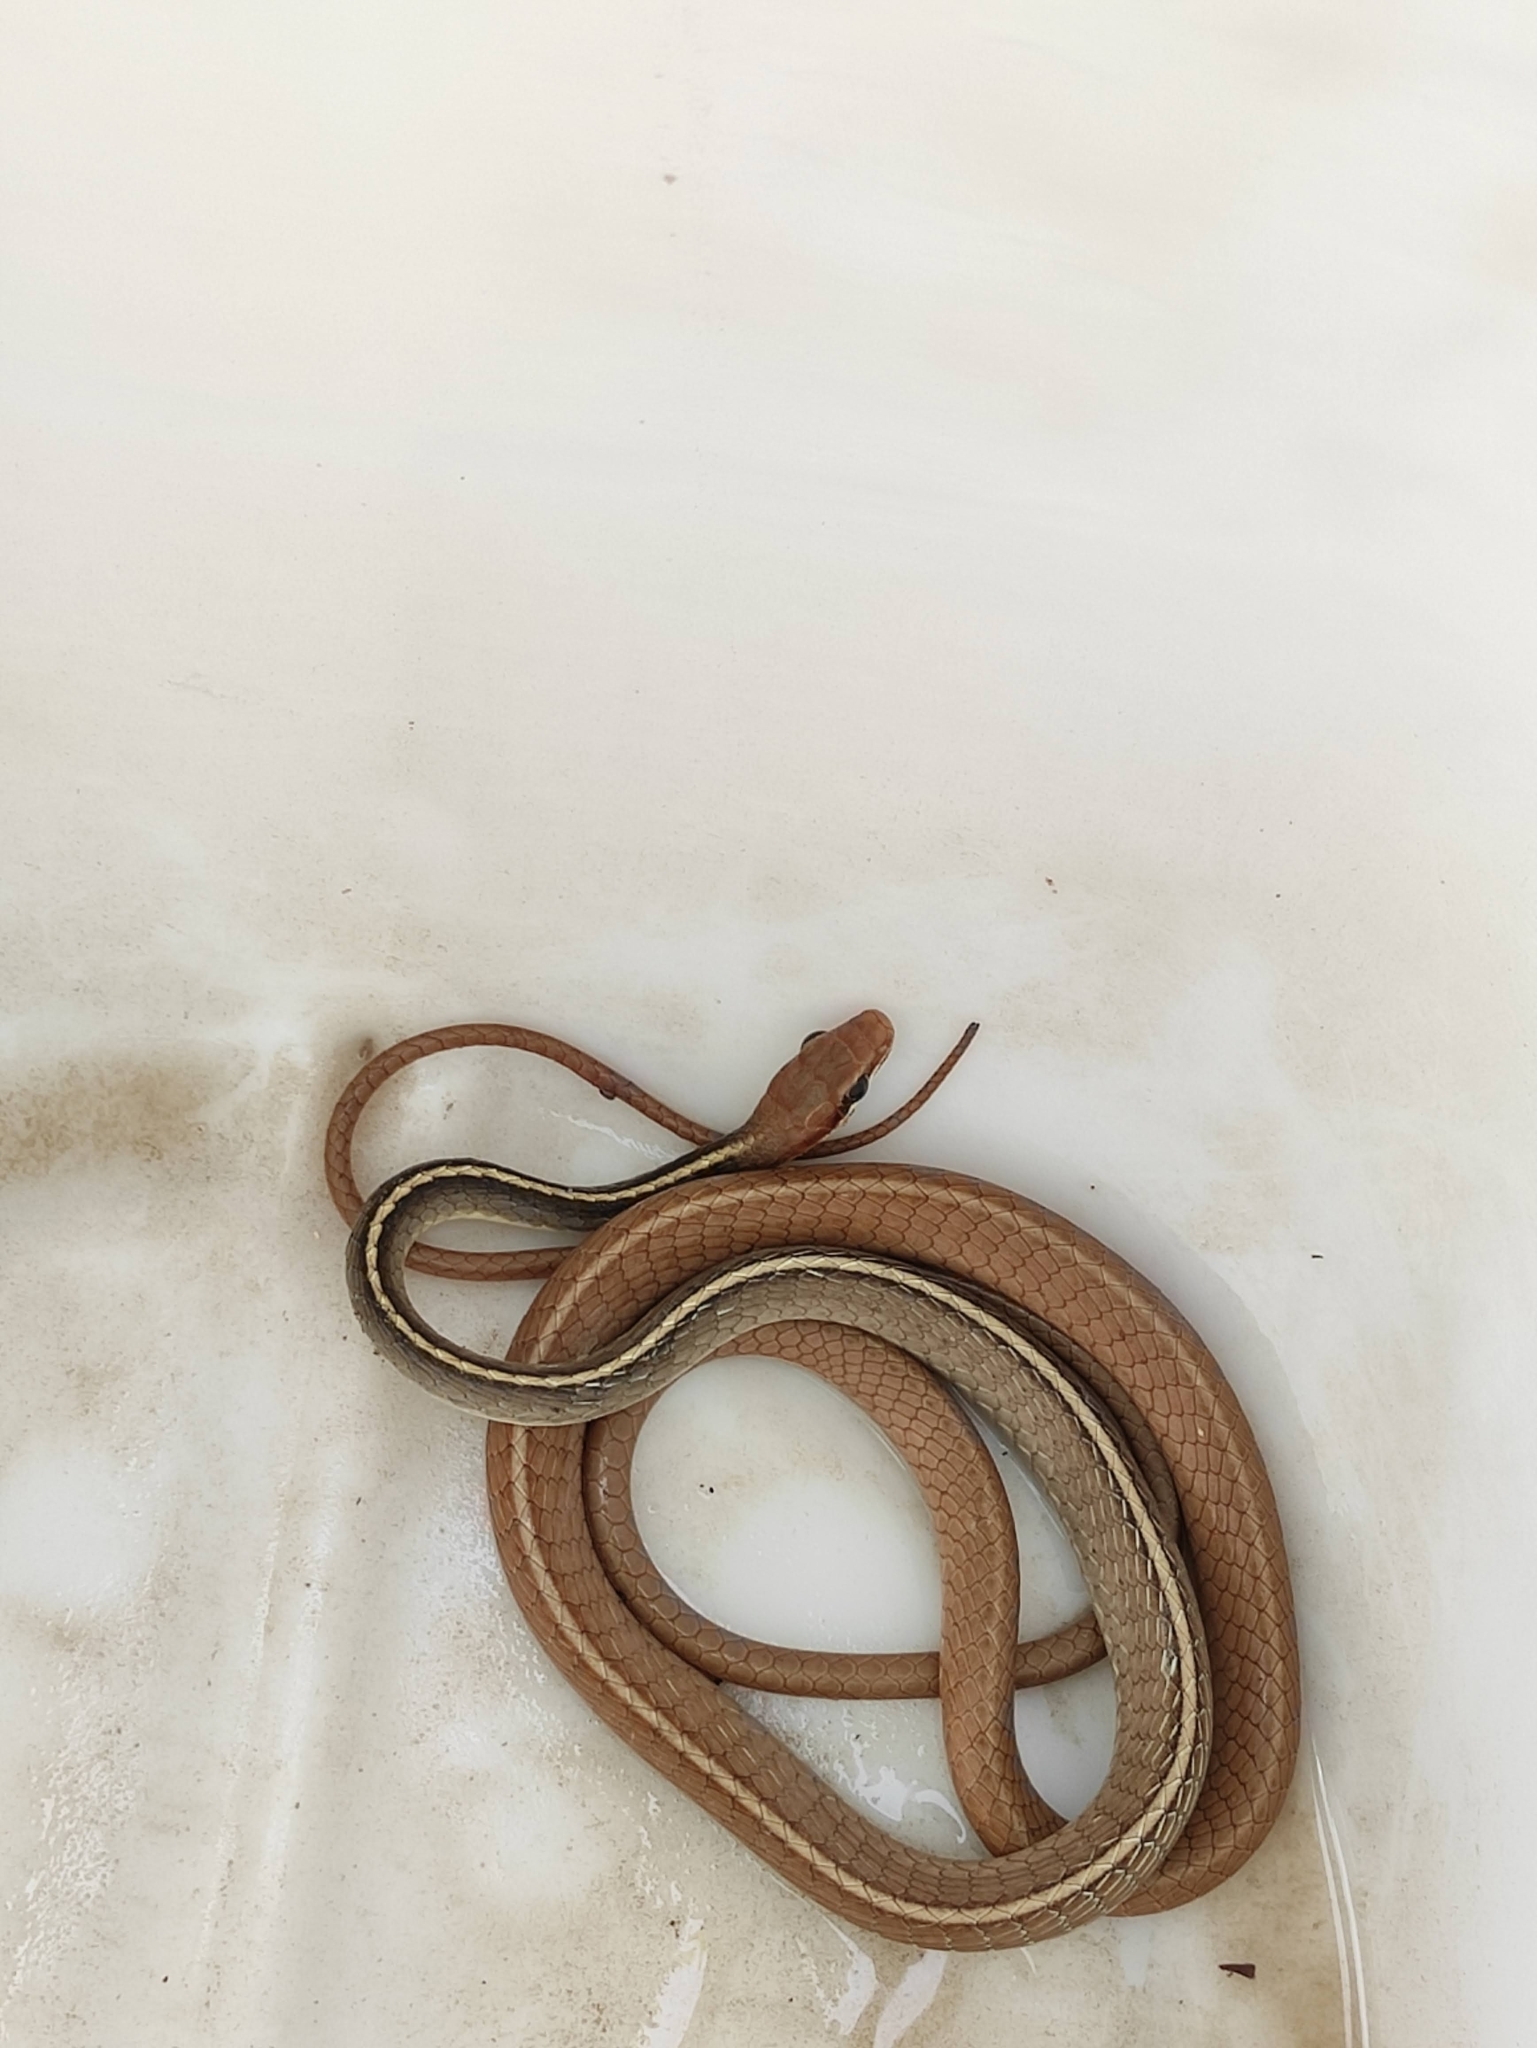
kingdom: Animalia
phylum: Chordata
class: Squamata
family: Colubridae
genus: Chironius
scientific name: Chironius flavolineatus
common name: Boettger's sipo
